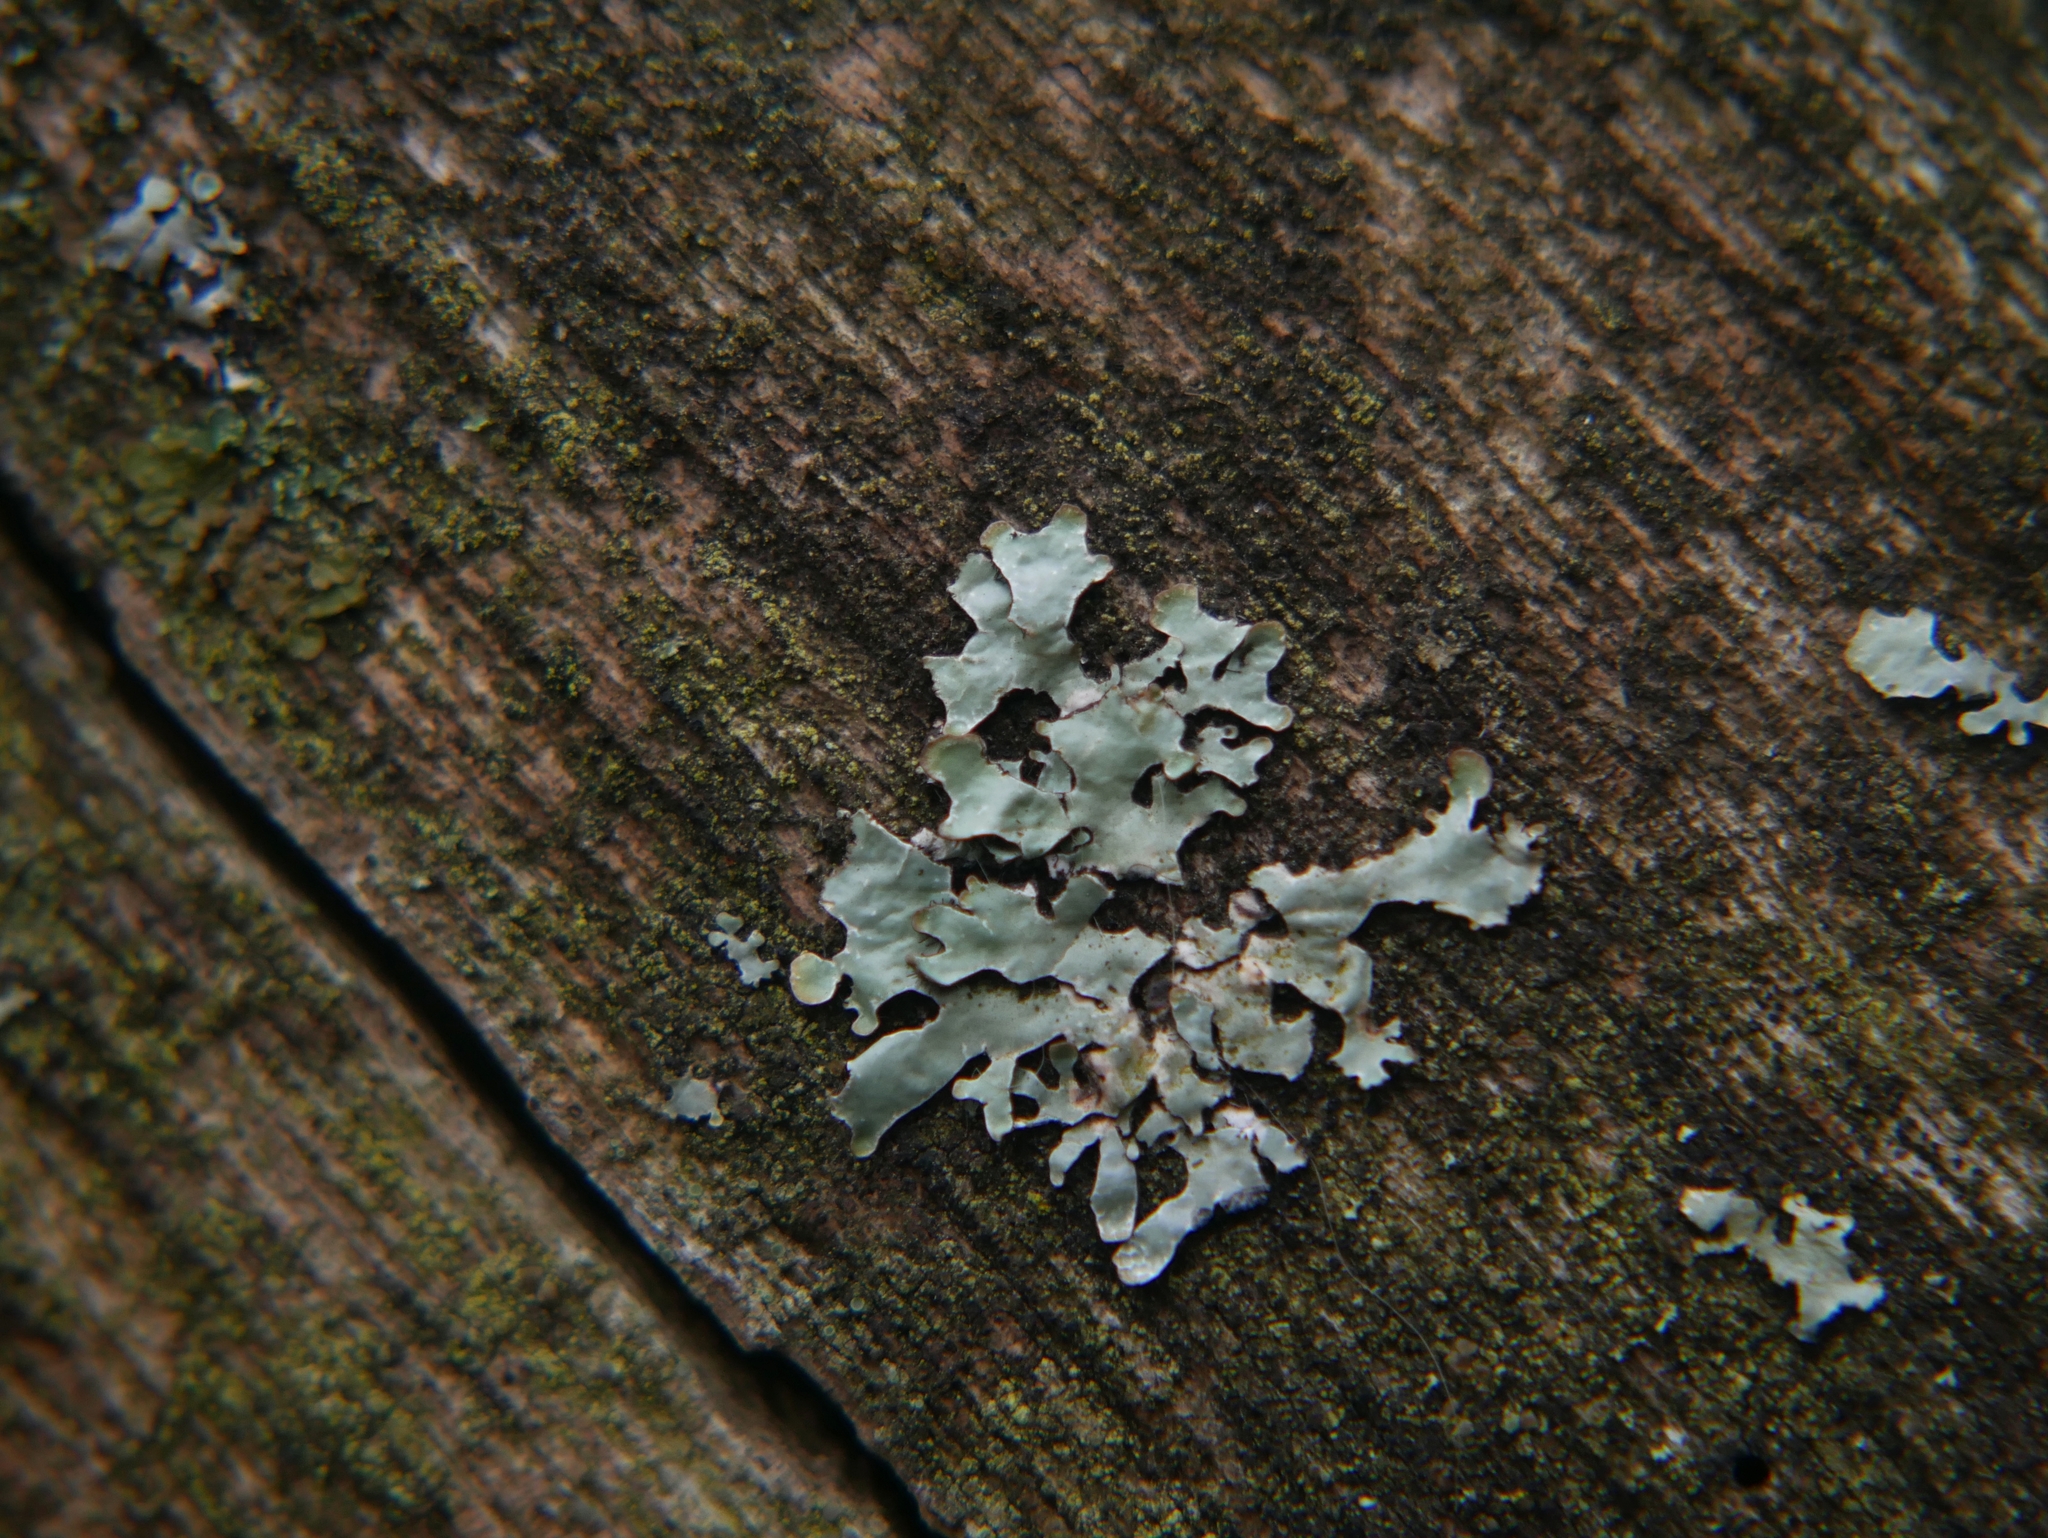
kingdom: Fungi
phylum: Ascomycota
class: Lecanoromycetes
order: Lecanorales
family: Parmeliaceae
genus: Parmelia
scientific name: Parmelia sulcata
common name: Netted shield lichen
